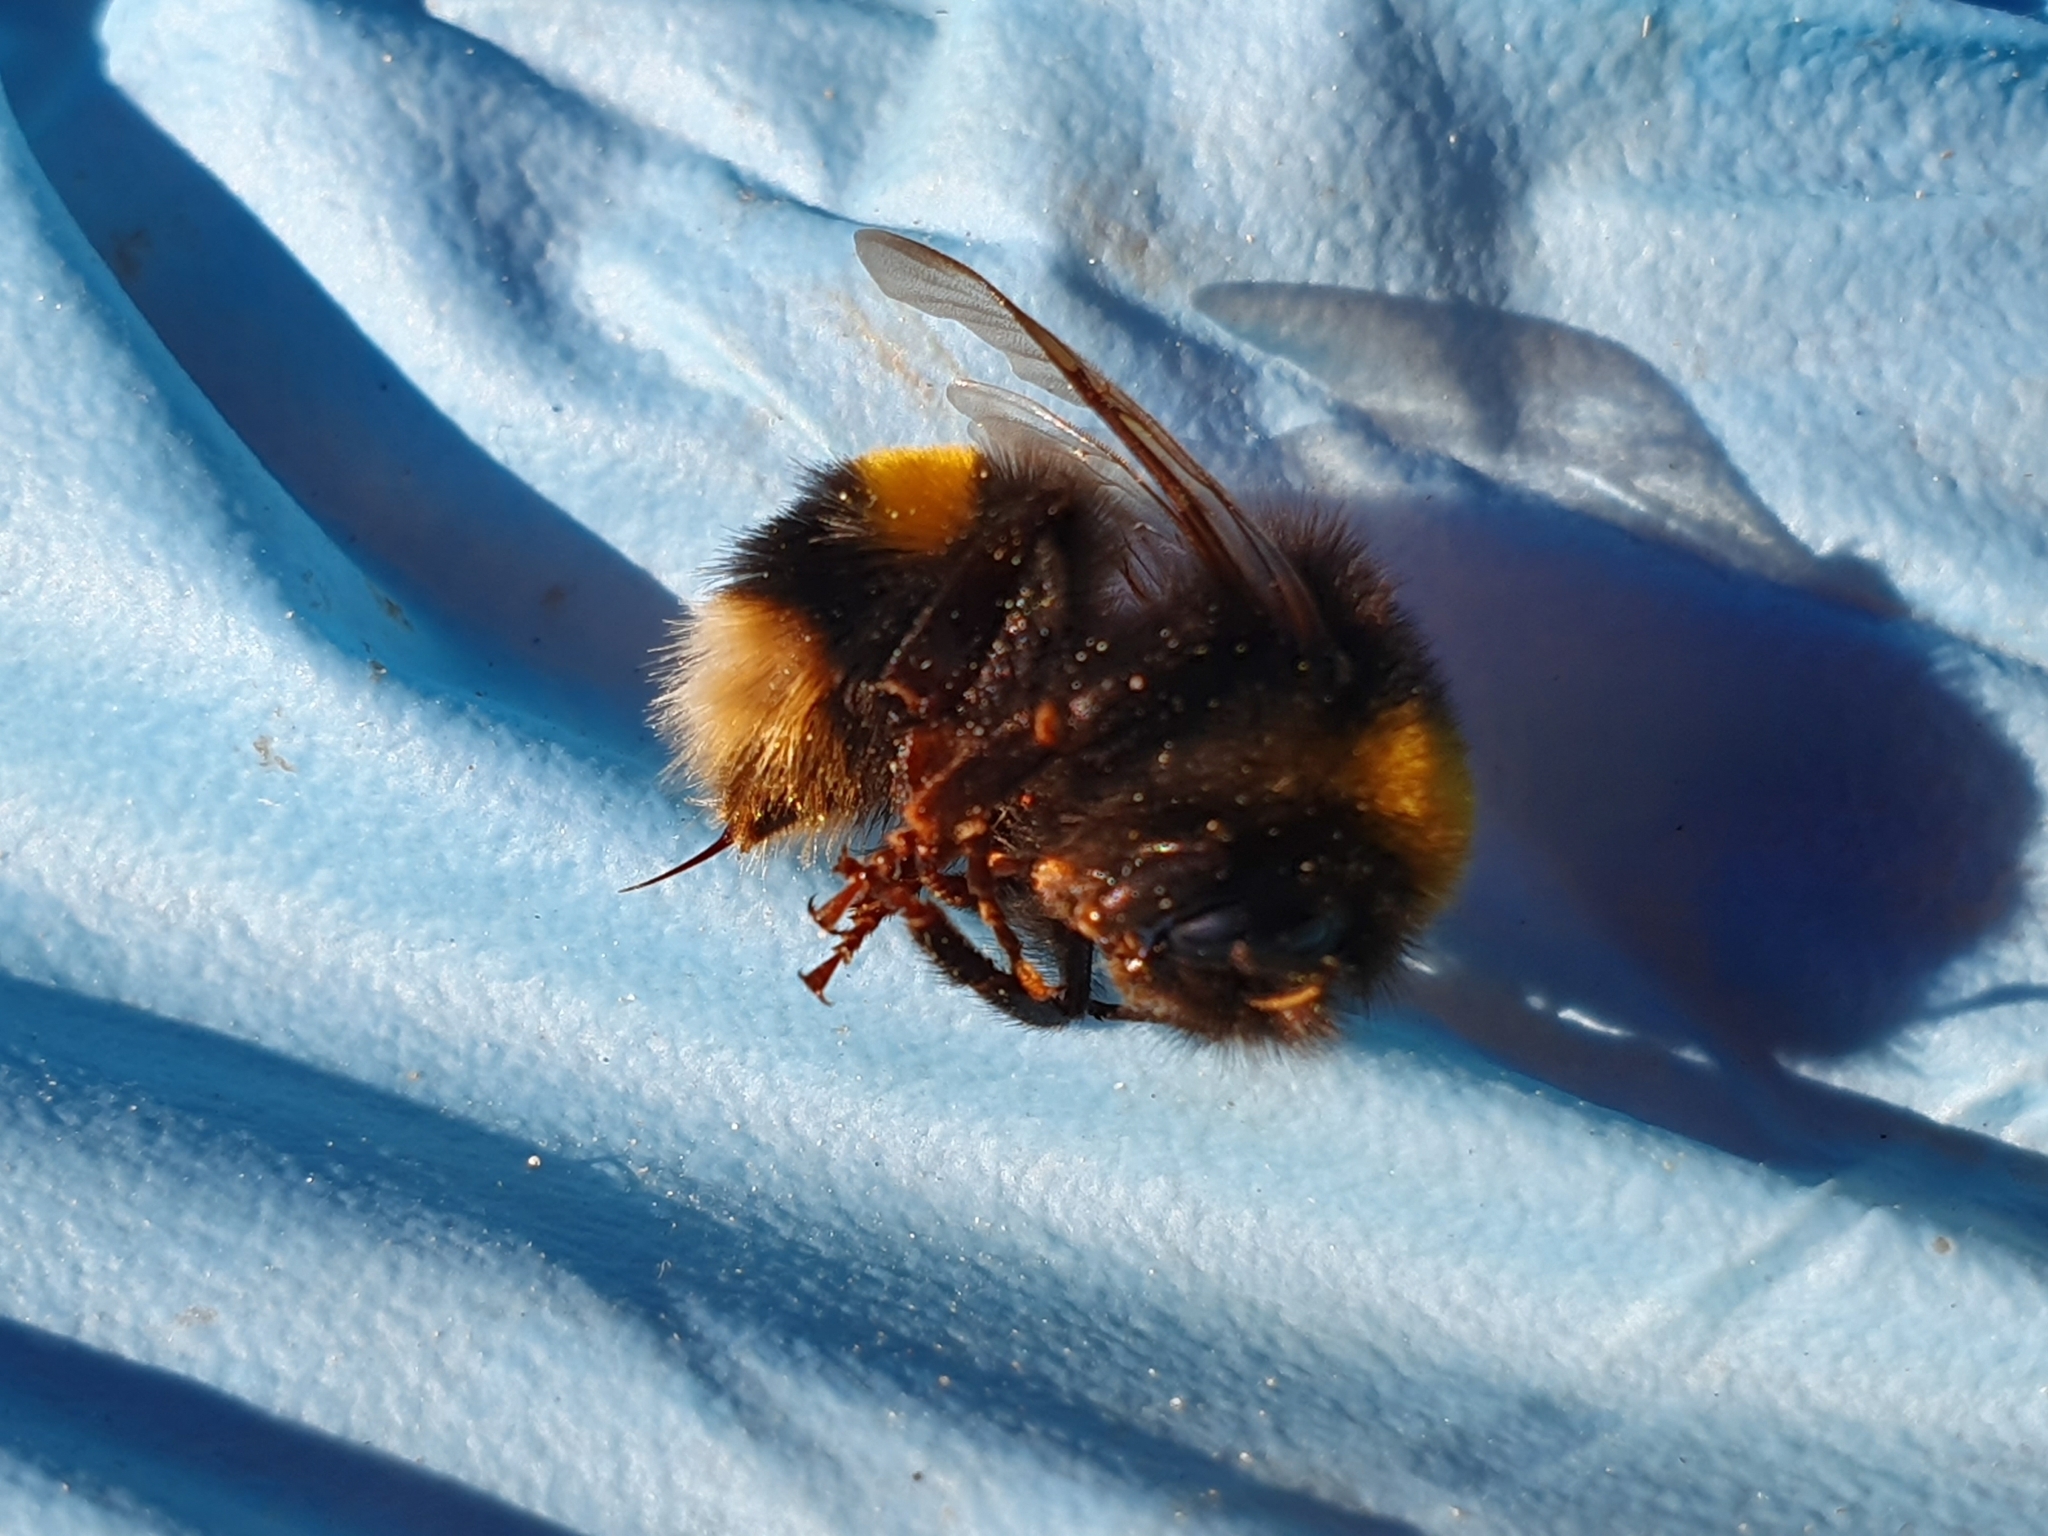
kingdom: Animalia
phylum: Arthropoda
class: Insecta
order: Hymenoptera
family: Apidae
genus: Bombus
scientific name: Bombus terrestris
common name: Buff-tailed bumblebee
